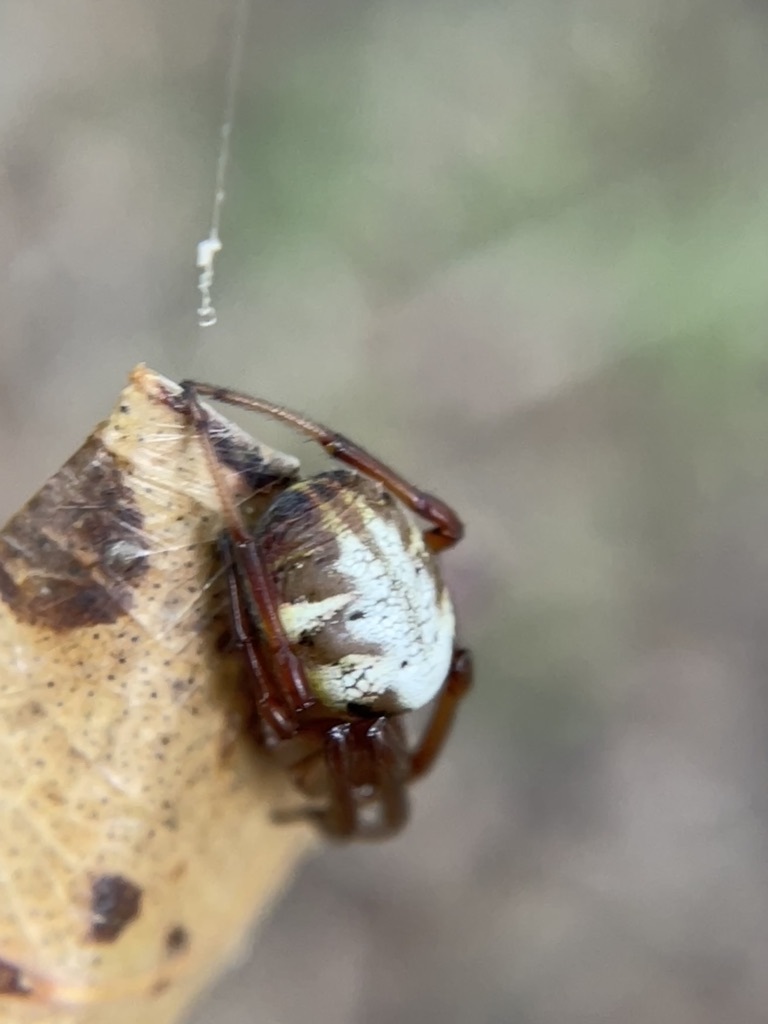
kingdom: Animalia
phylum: Arthropoda
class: Arachnida
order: Araneae
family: Araneidae
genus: Phonognatha
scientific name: Phonognatha graeffei
